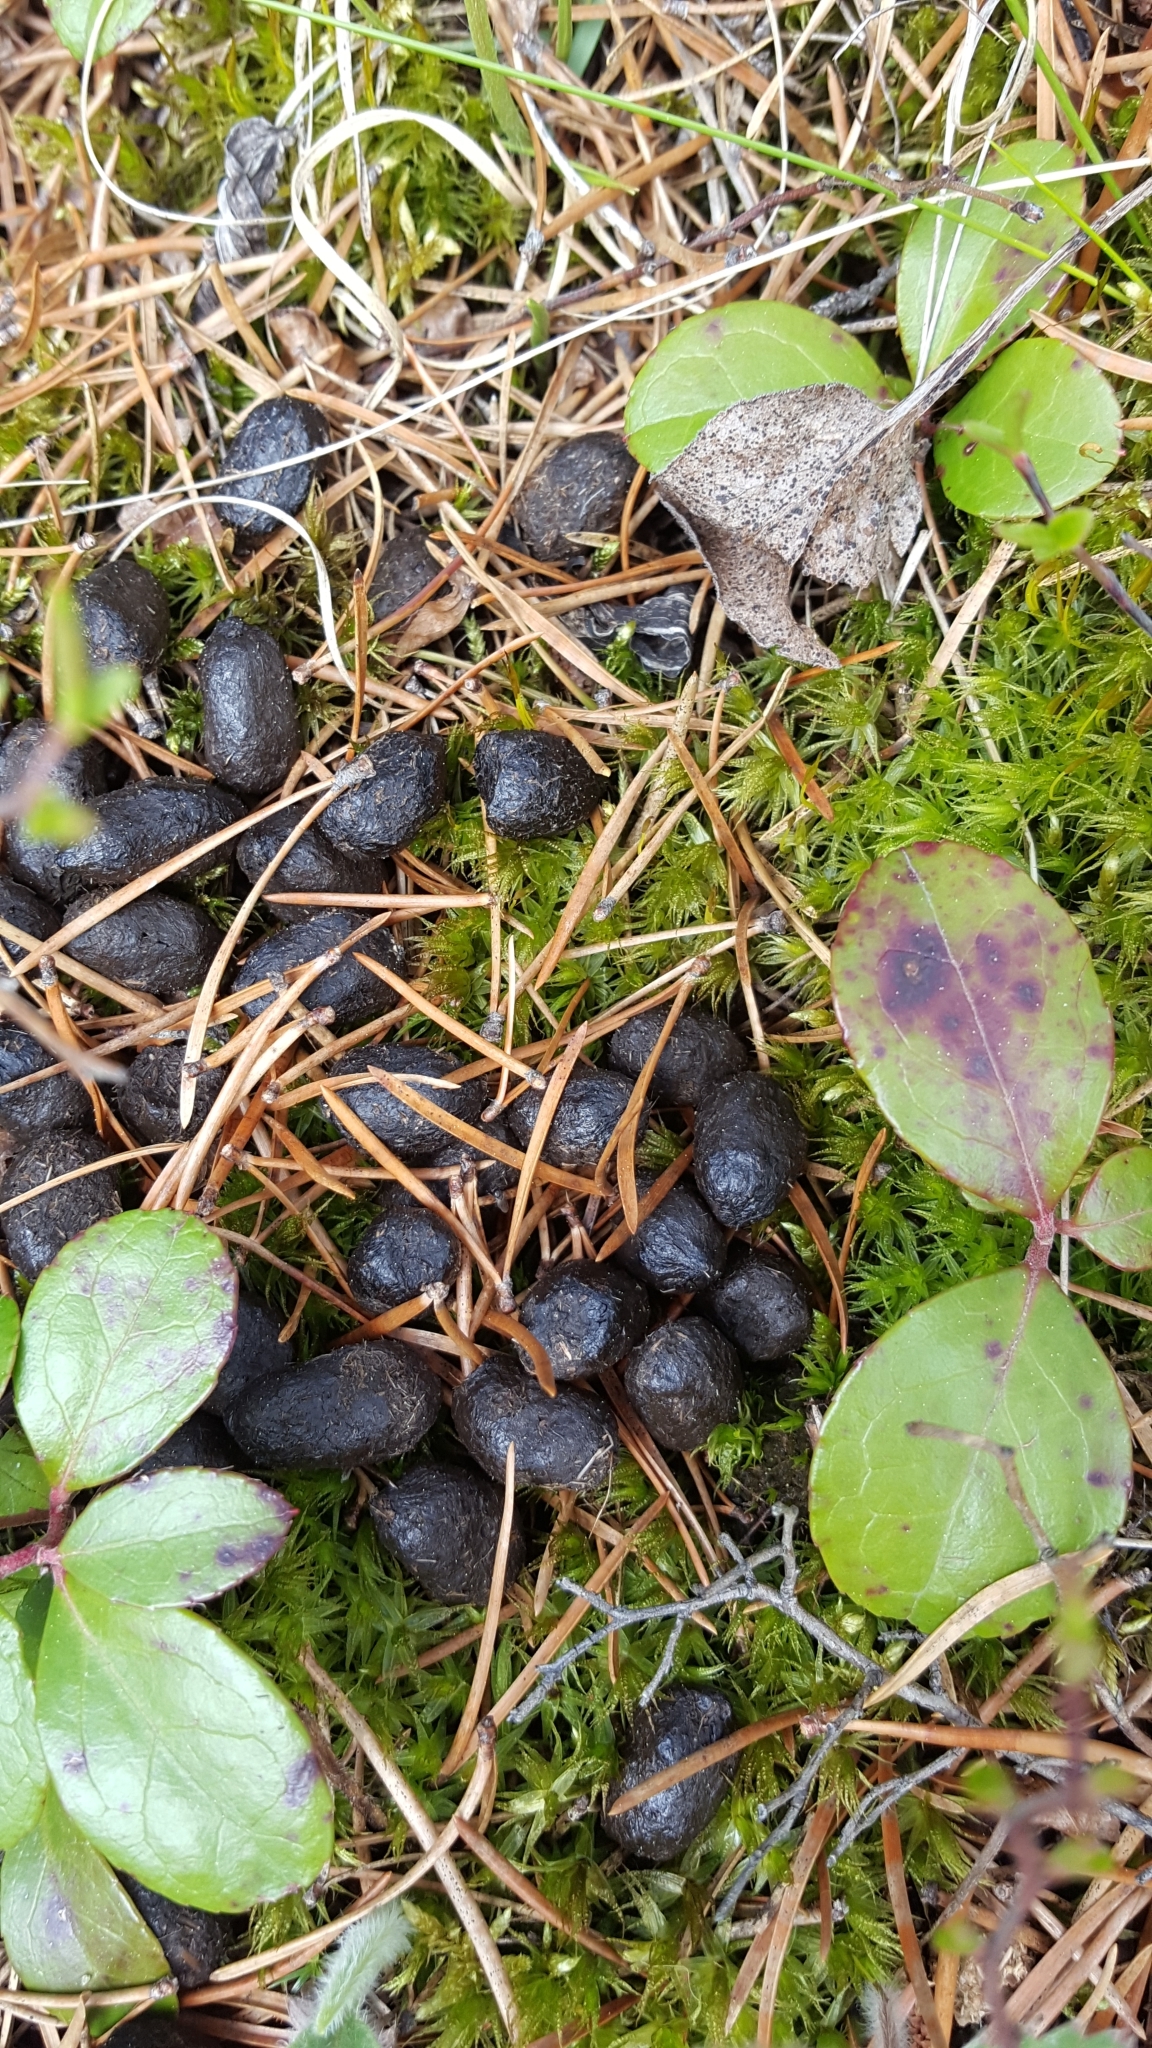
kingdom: Animalia
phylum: Chordata
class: Mammalia
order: Artiodactyla
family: Cervidae
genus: Odocoileus
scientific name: Odocoileus virginianus
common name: White-tailed deer
